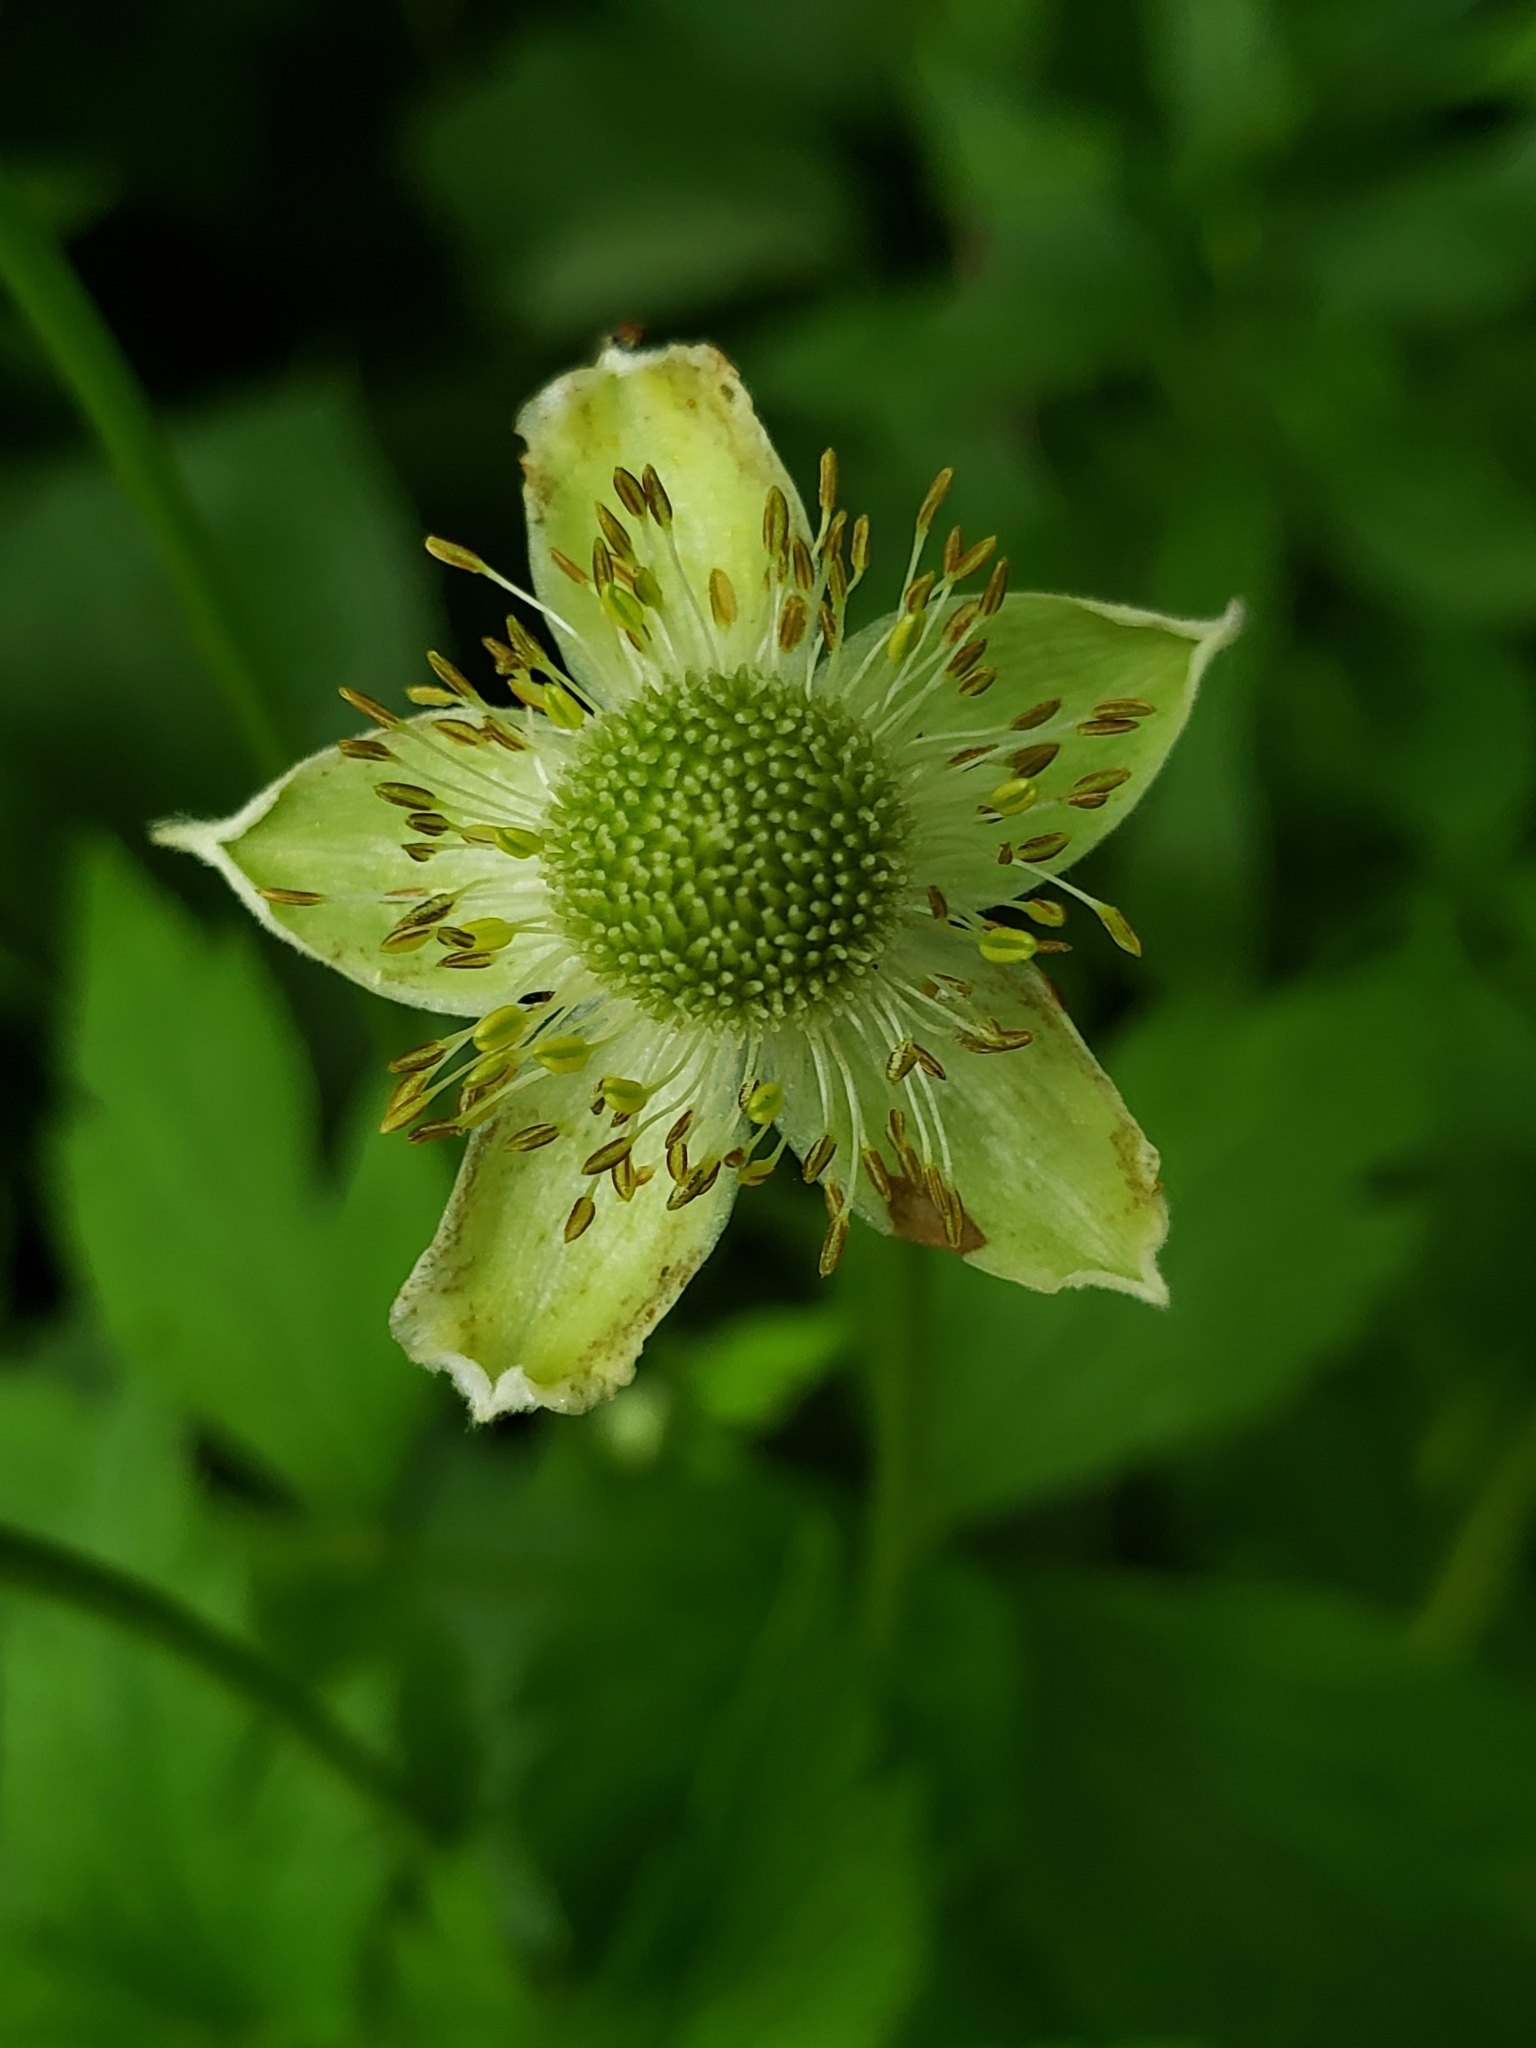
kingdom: Plantae
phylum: Tracheophyta
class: Magnoliopsida
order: Ranunculales
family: Ranunculaceae
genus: Anemone
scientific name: Anemone virginiana
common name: Tall anemone
